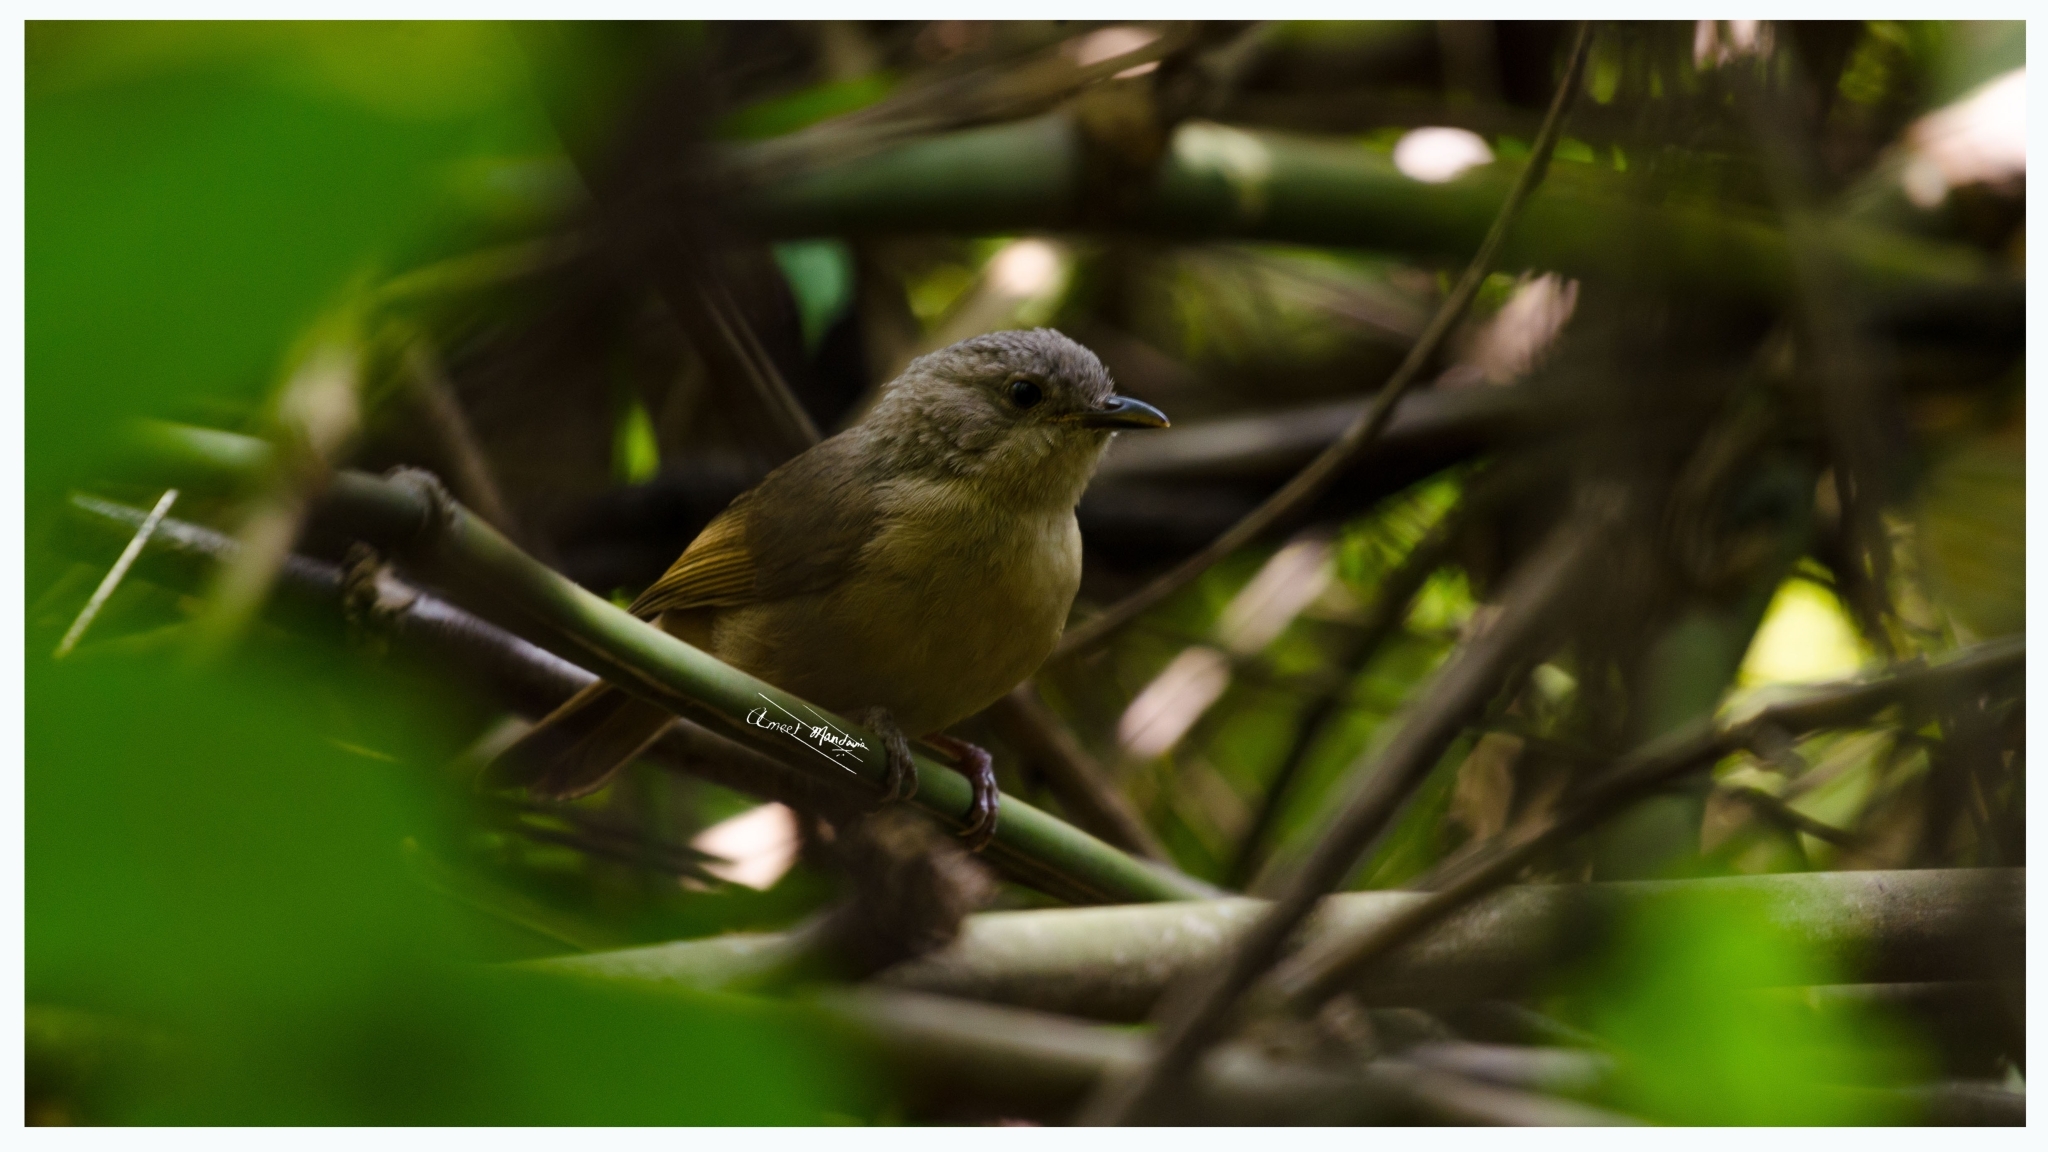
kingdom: Animalia
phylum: Chordata
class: Aves
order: Passeriformes
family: Pellorneidae
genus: Alcippe
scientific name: Alcippe poioicephala
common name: Brown-cheeked fulvetta
